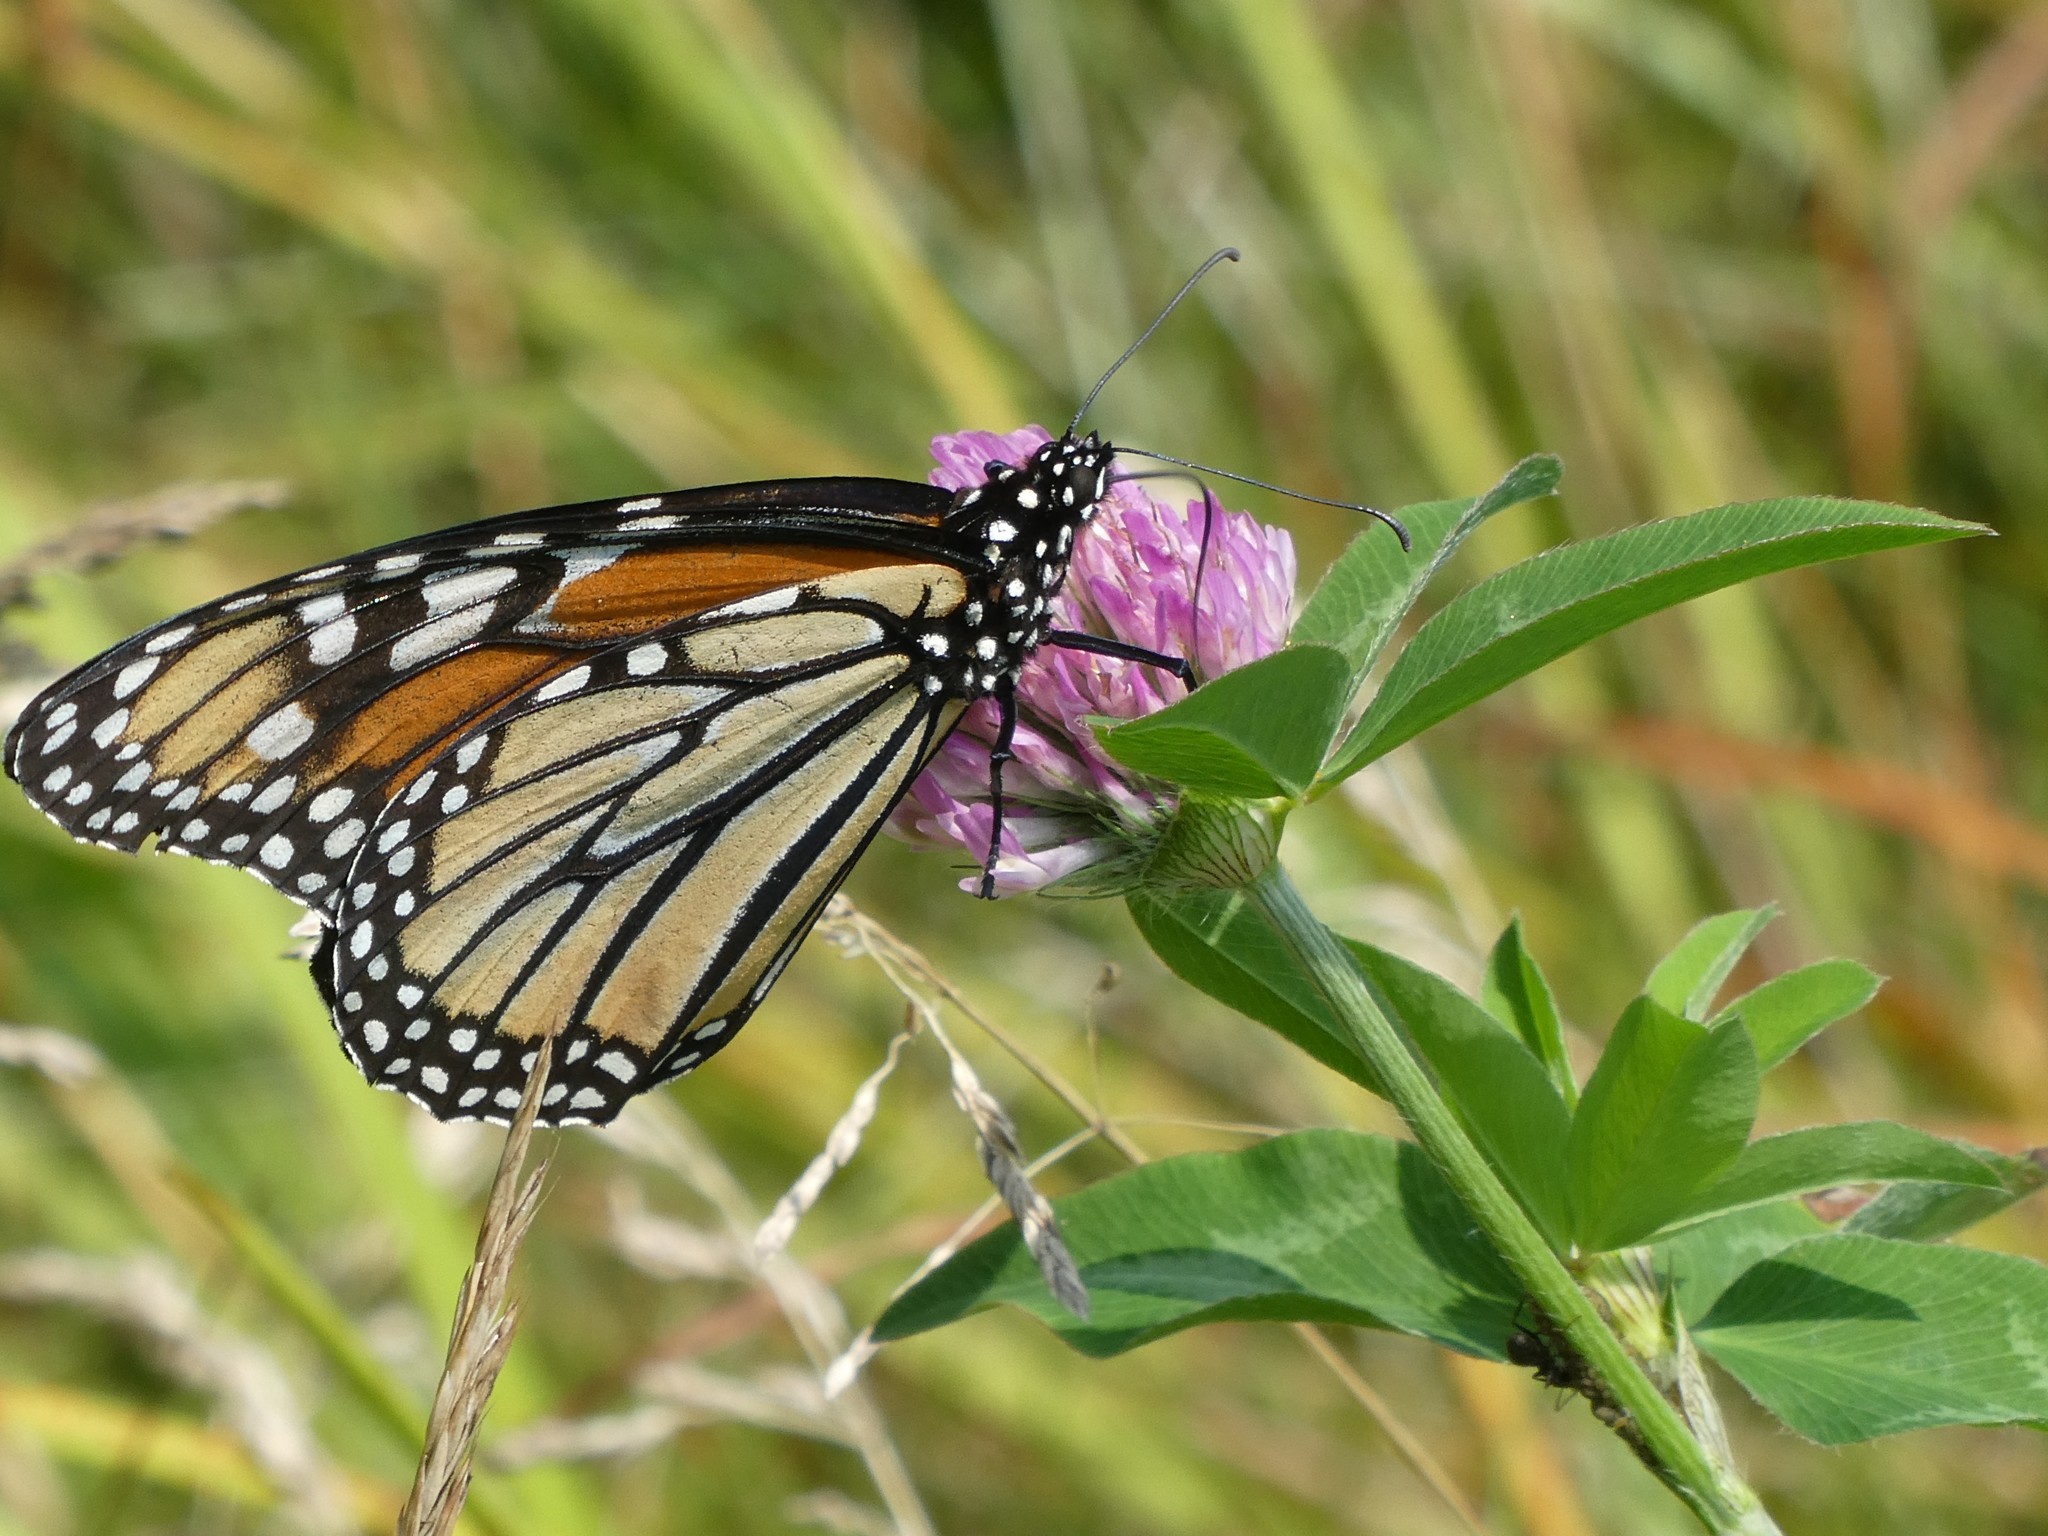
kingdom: Animalia
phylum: Arthropoda
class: Insecta
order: Lepidoptera
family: Nymphalidae
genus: Danaus
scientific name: Danaus plexippus
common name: Monarch
